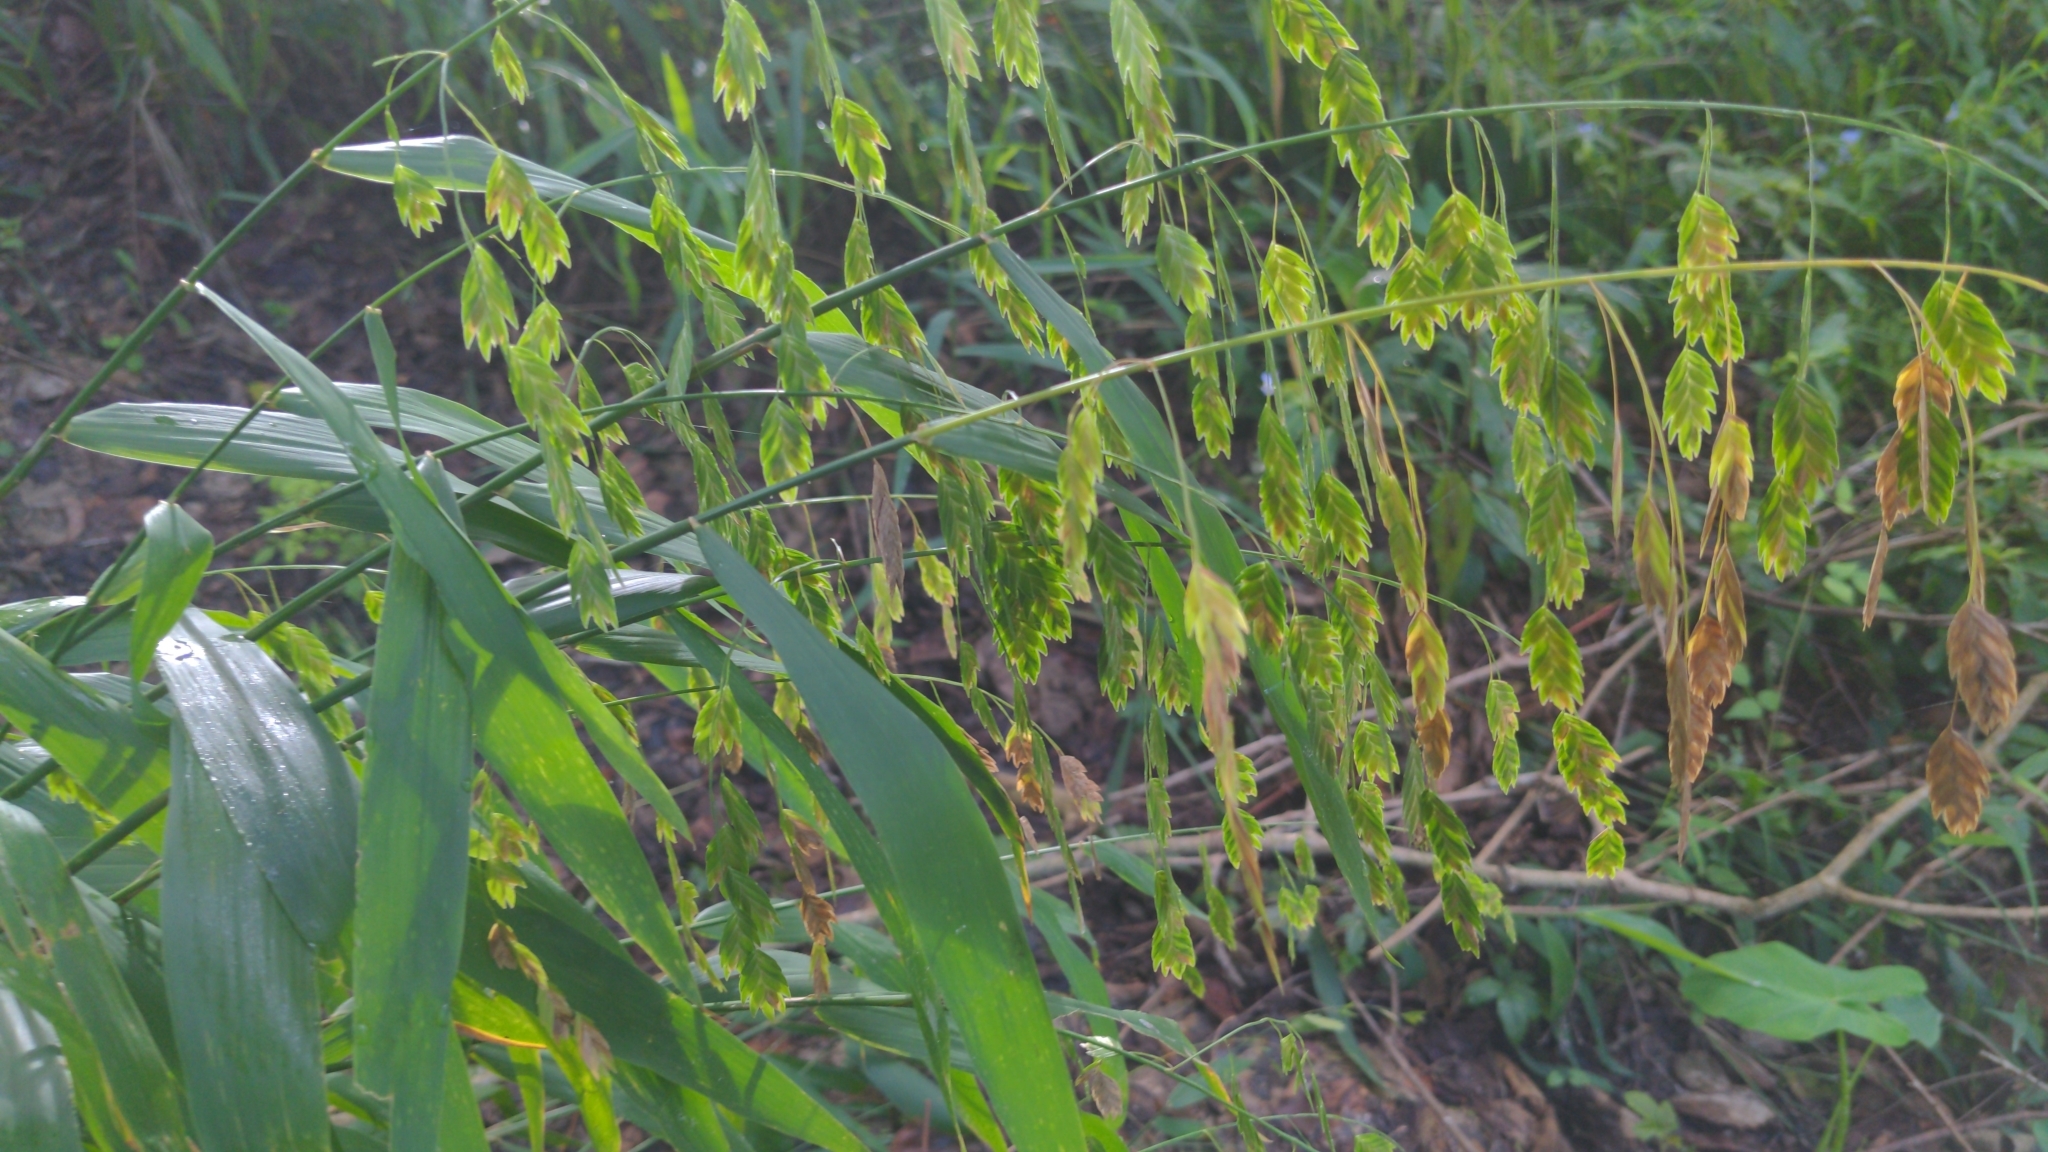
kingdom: Plantae
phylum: Tracheophyta
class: Liliopsida
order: Poales
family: Poaceae
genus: Chasmanthium
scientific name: Chasmanthium latifolium
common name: Broad-leaved chasmanthium
